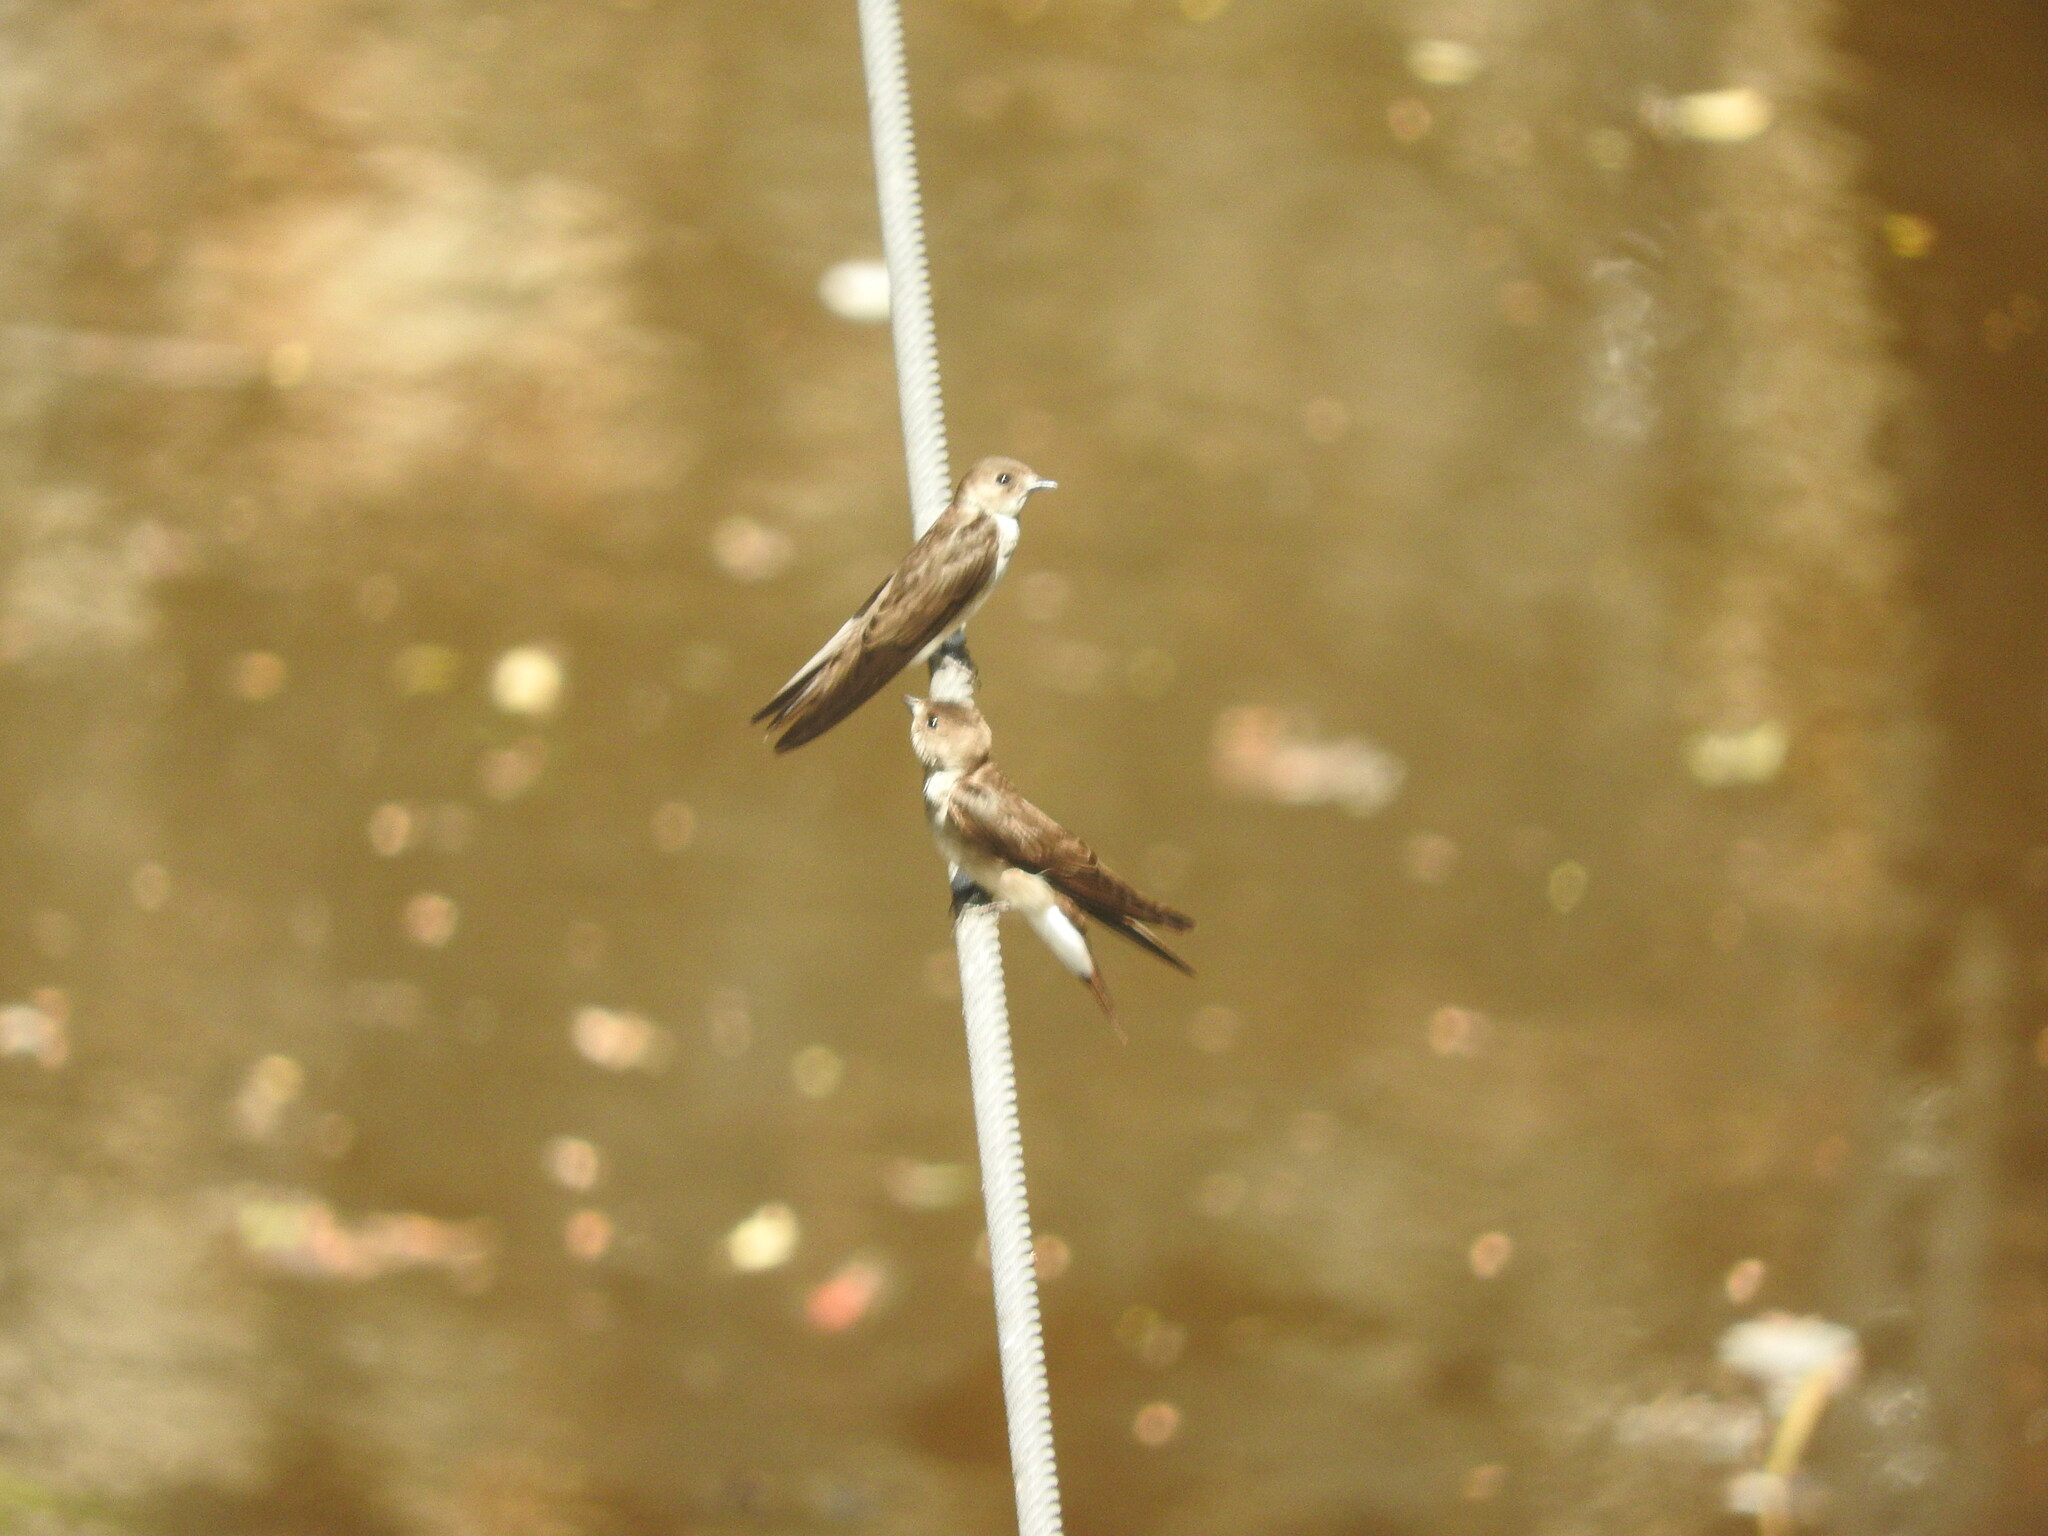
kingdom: Animalia
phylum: Chordata
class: Aves
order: Passeriformes
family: Hirundinidae
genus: Stelgidopteryx
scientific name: Stelgidopteryx serripennis
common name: Northern rough-winged swallow
